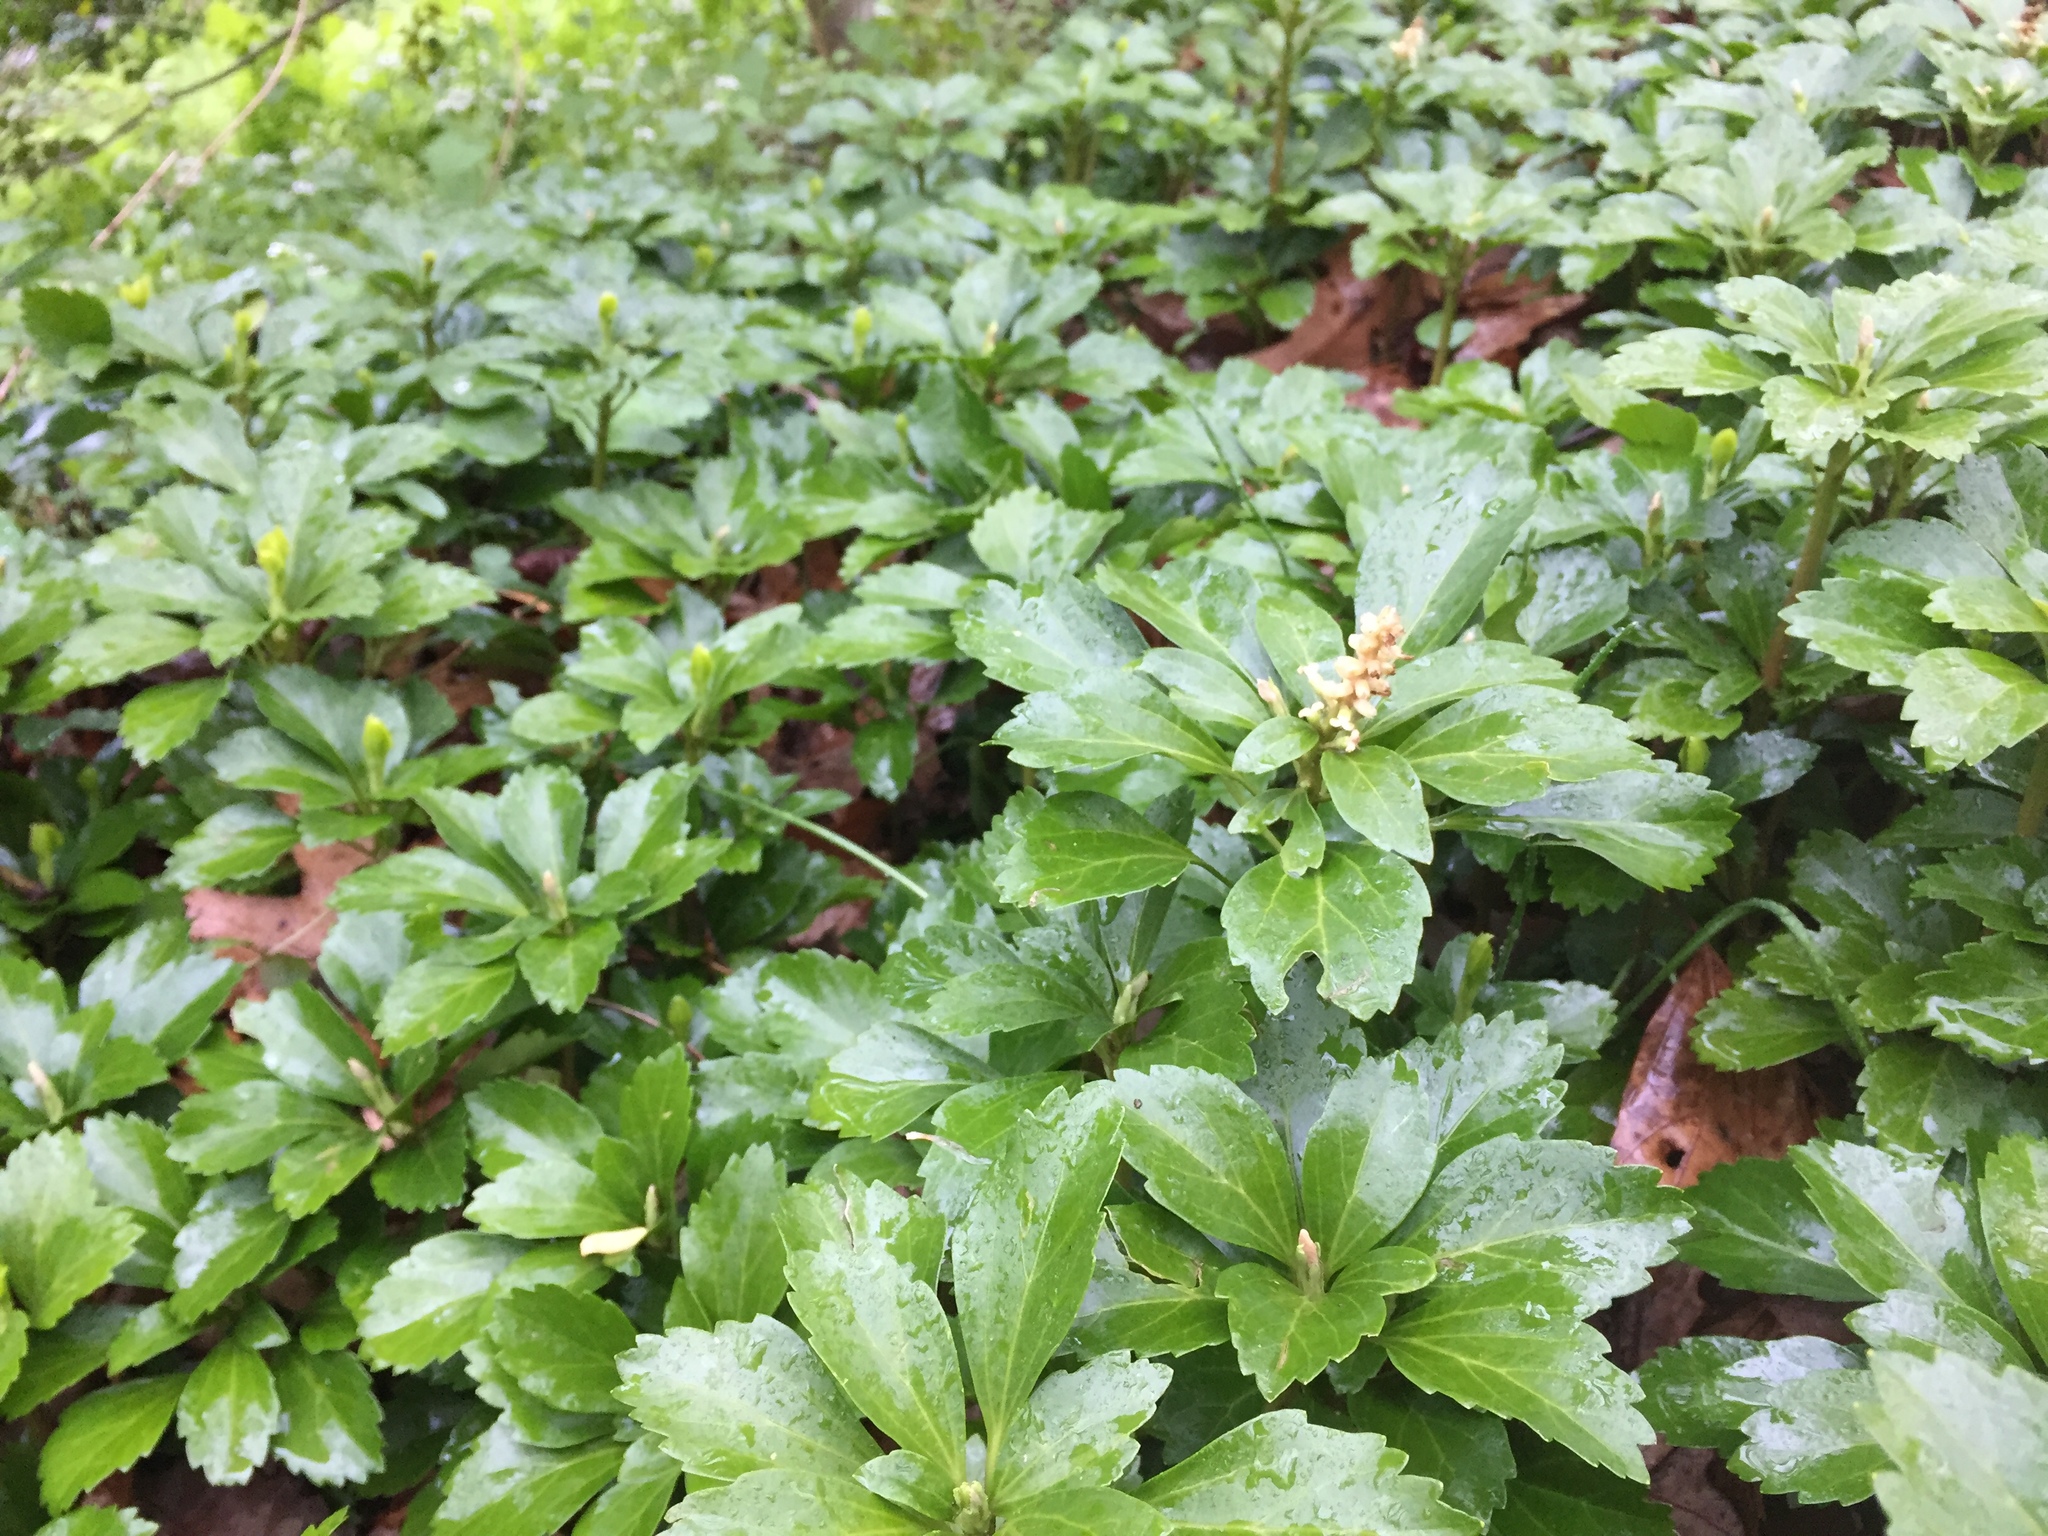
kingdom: Plantae
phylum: Tracheophyta
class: Magnoliopsida
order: Buxales
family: Buxaceae
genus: Pachysandra
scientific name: Pachysandra terminalis
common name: Japanese pachysandra
